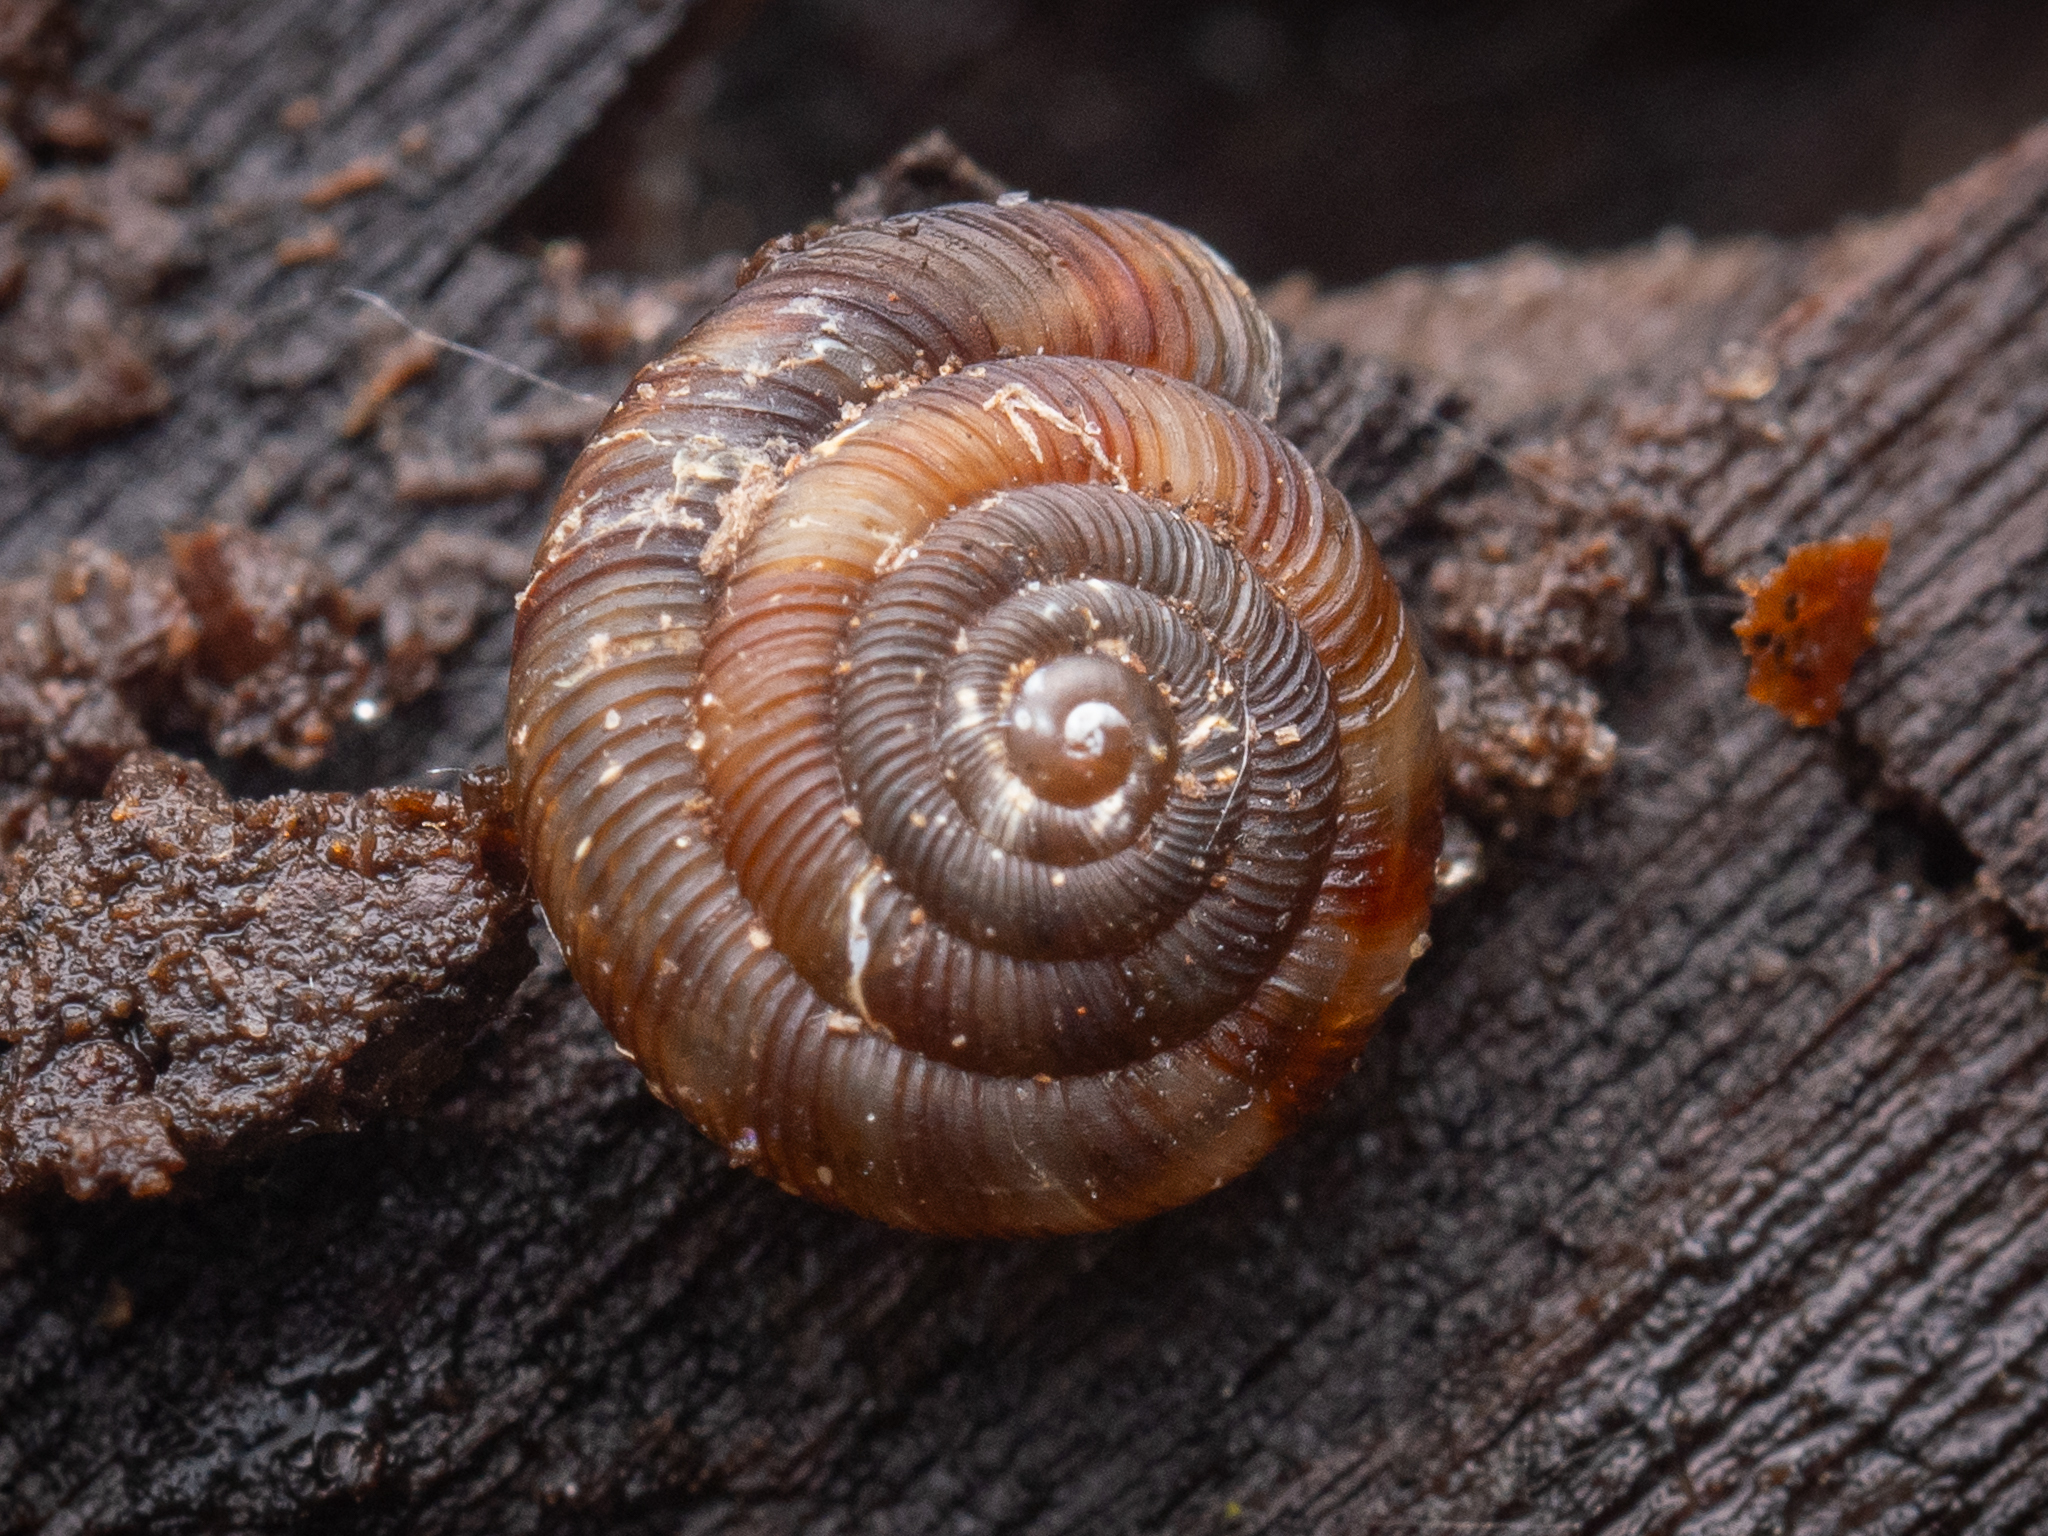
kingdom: Animalia
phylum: Mollusca
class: Gastropoda
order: Stylommatophora
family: Discidae
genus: Discus
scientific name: Discus rotundatus
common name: Rounded snail
